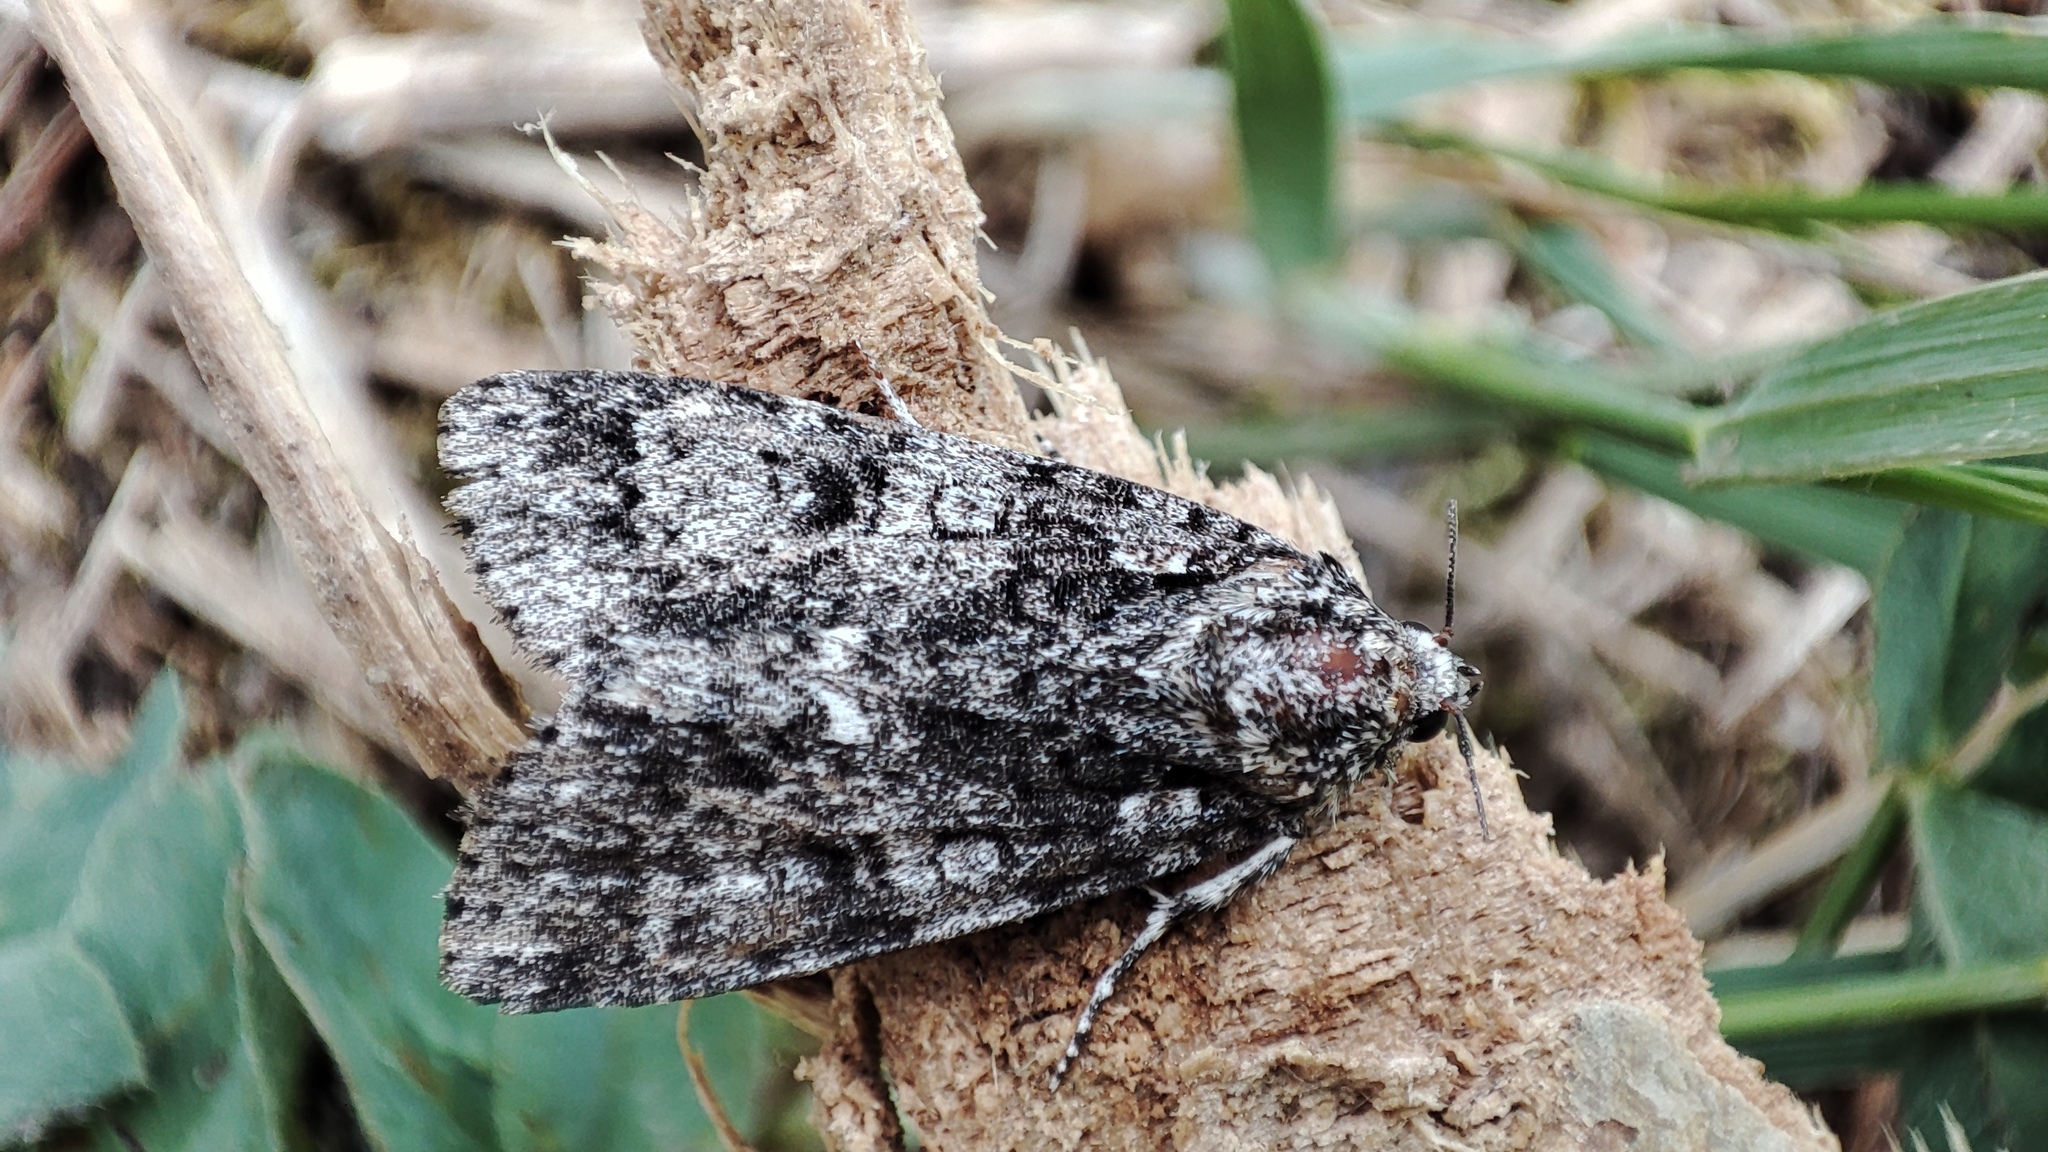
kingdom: Animalia
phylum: Arthropoda
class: Insecta
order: Lepidoptera
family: Noctuidae
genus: Acronicta
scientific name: Acronicta rumicis
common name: Knot grass
